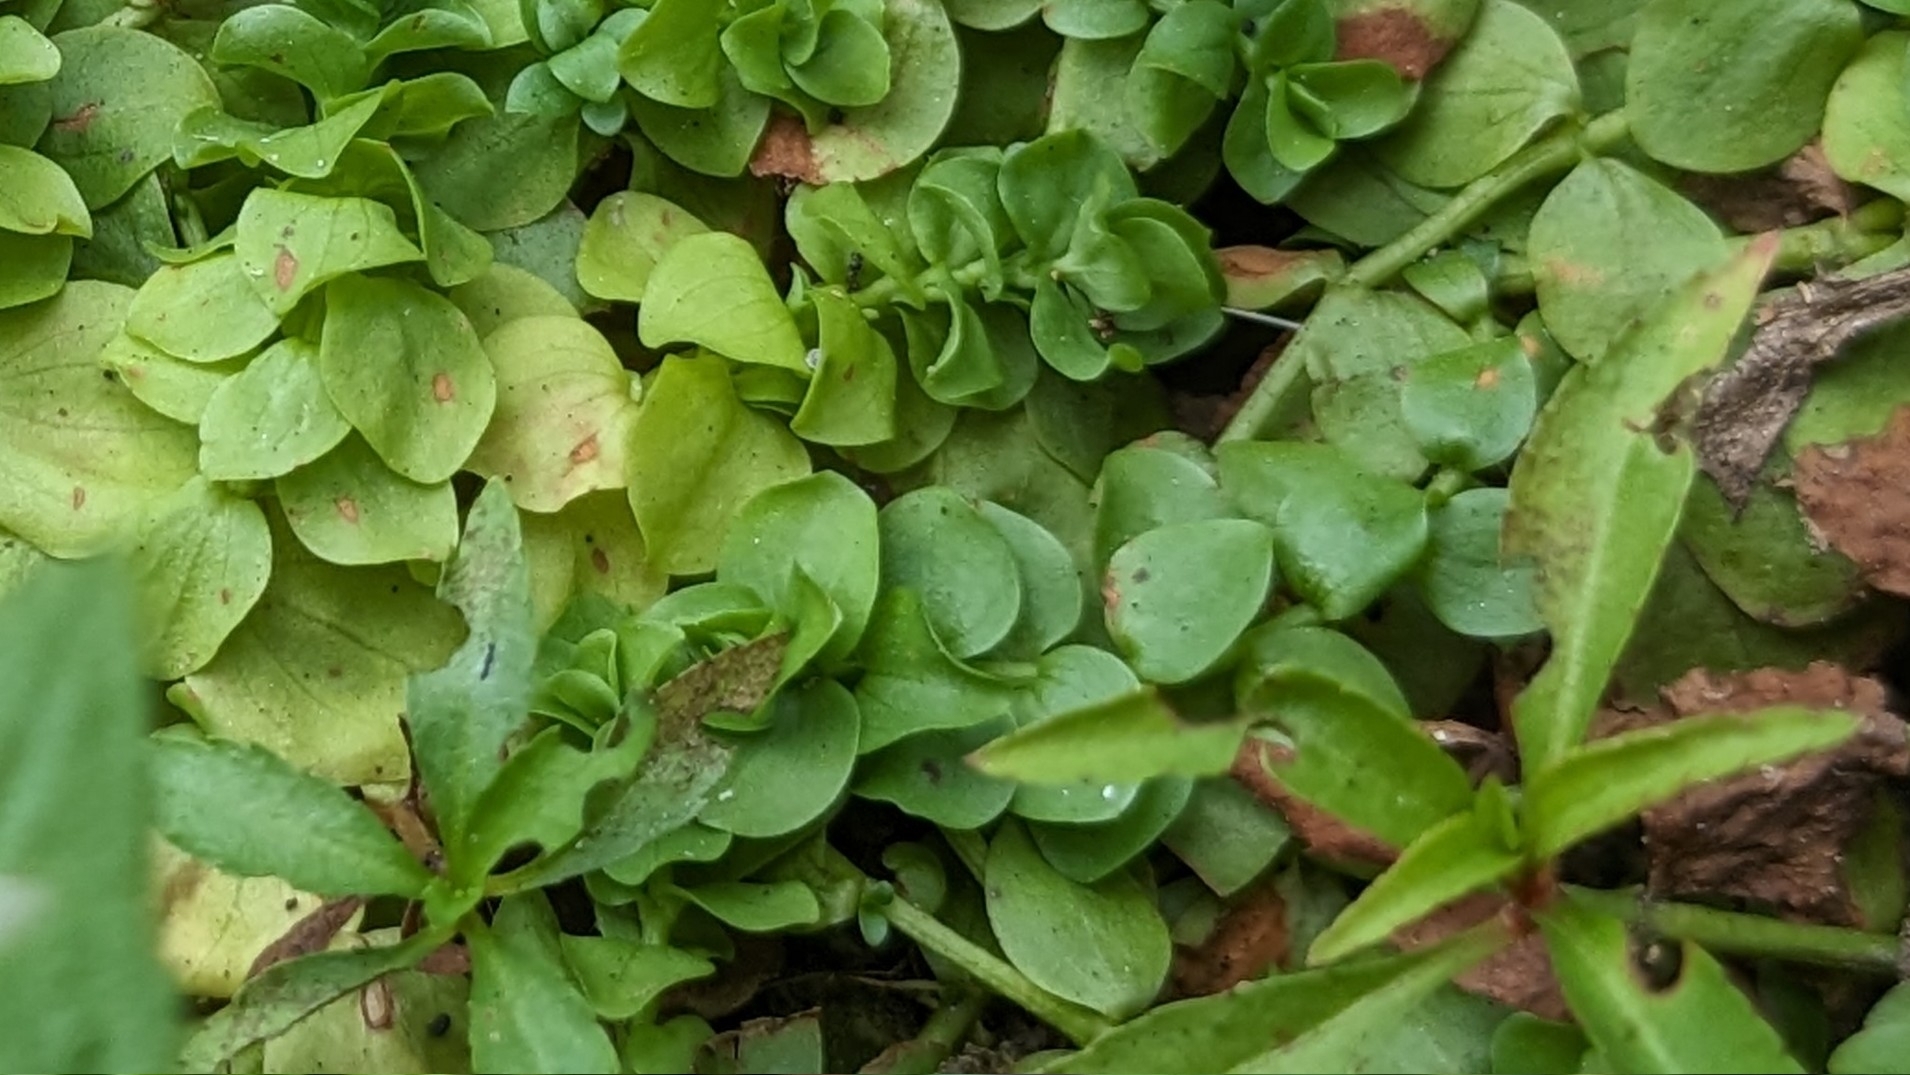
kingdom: Plantae
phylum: Tracheophyta
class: Magnoliopsida
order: Saxifragales
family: Haloragaceae
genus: Proserpinaca
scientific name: Proserpinaca palustris
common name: Marsh mermaidweed
